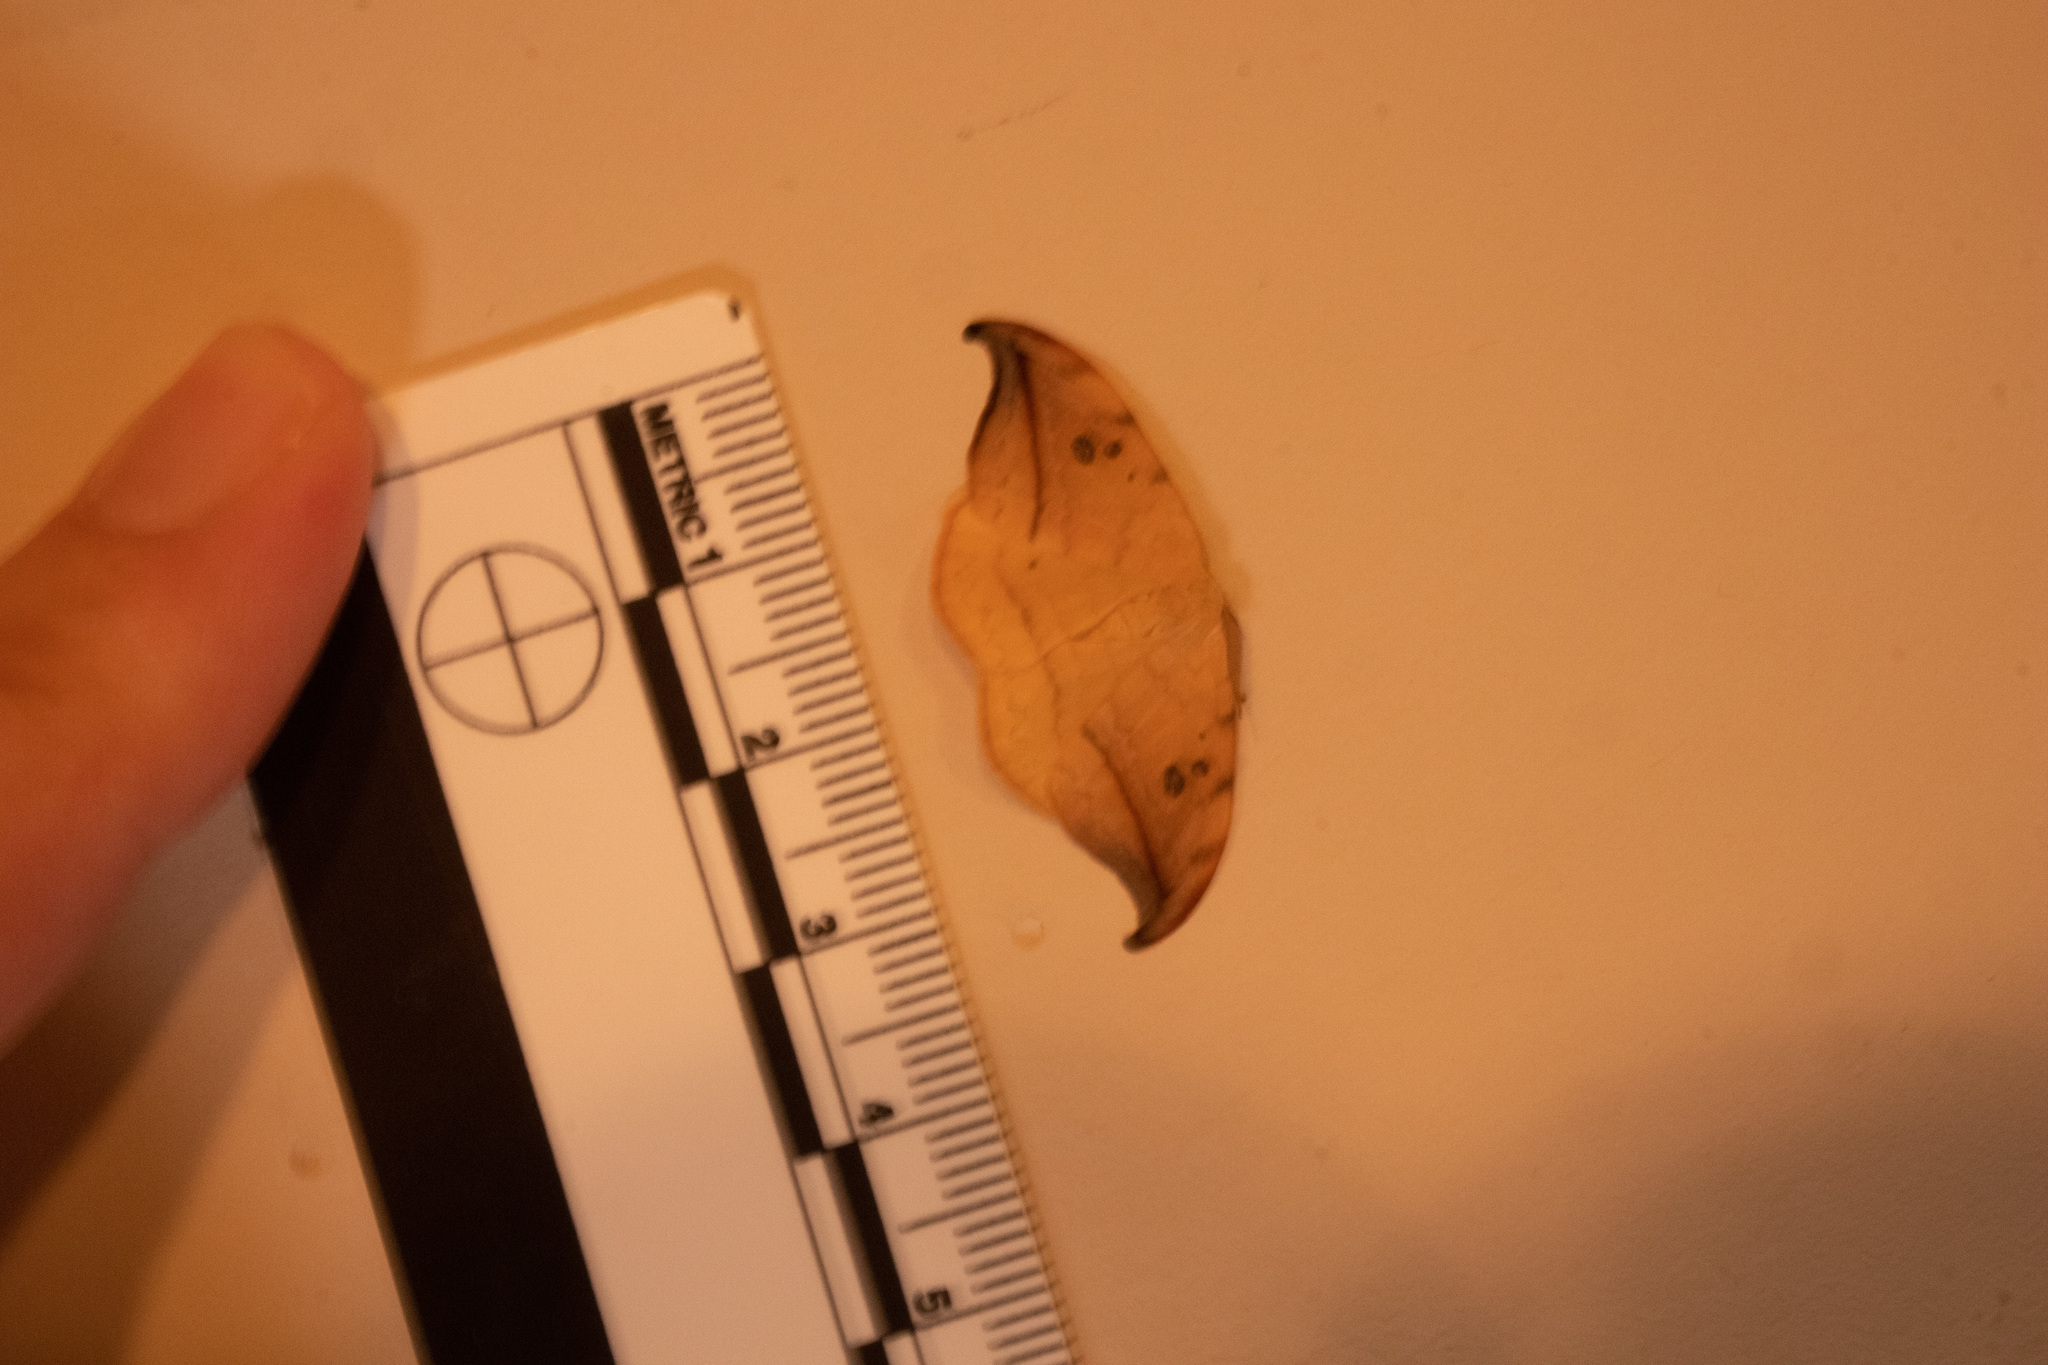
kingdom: Animalia
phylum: Arthropoda
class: Insecta
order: Lepidoptera
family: Drepanidae
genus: Drepana
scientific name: Drepana arcuata
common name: Arched hooktip moth
